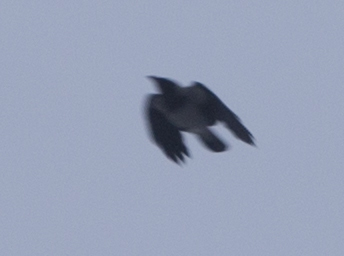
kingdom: Animalia
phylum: Chordata
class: Aves
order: Passeriformes
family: Corvidae
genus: Corvus
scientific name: Corvus cornix
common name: Hooded crow
